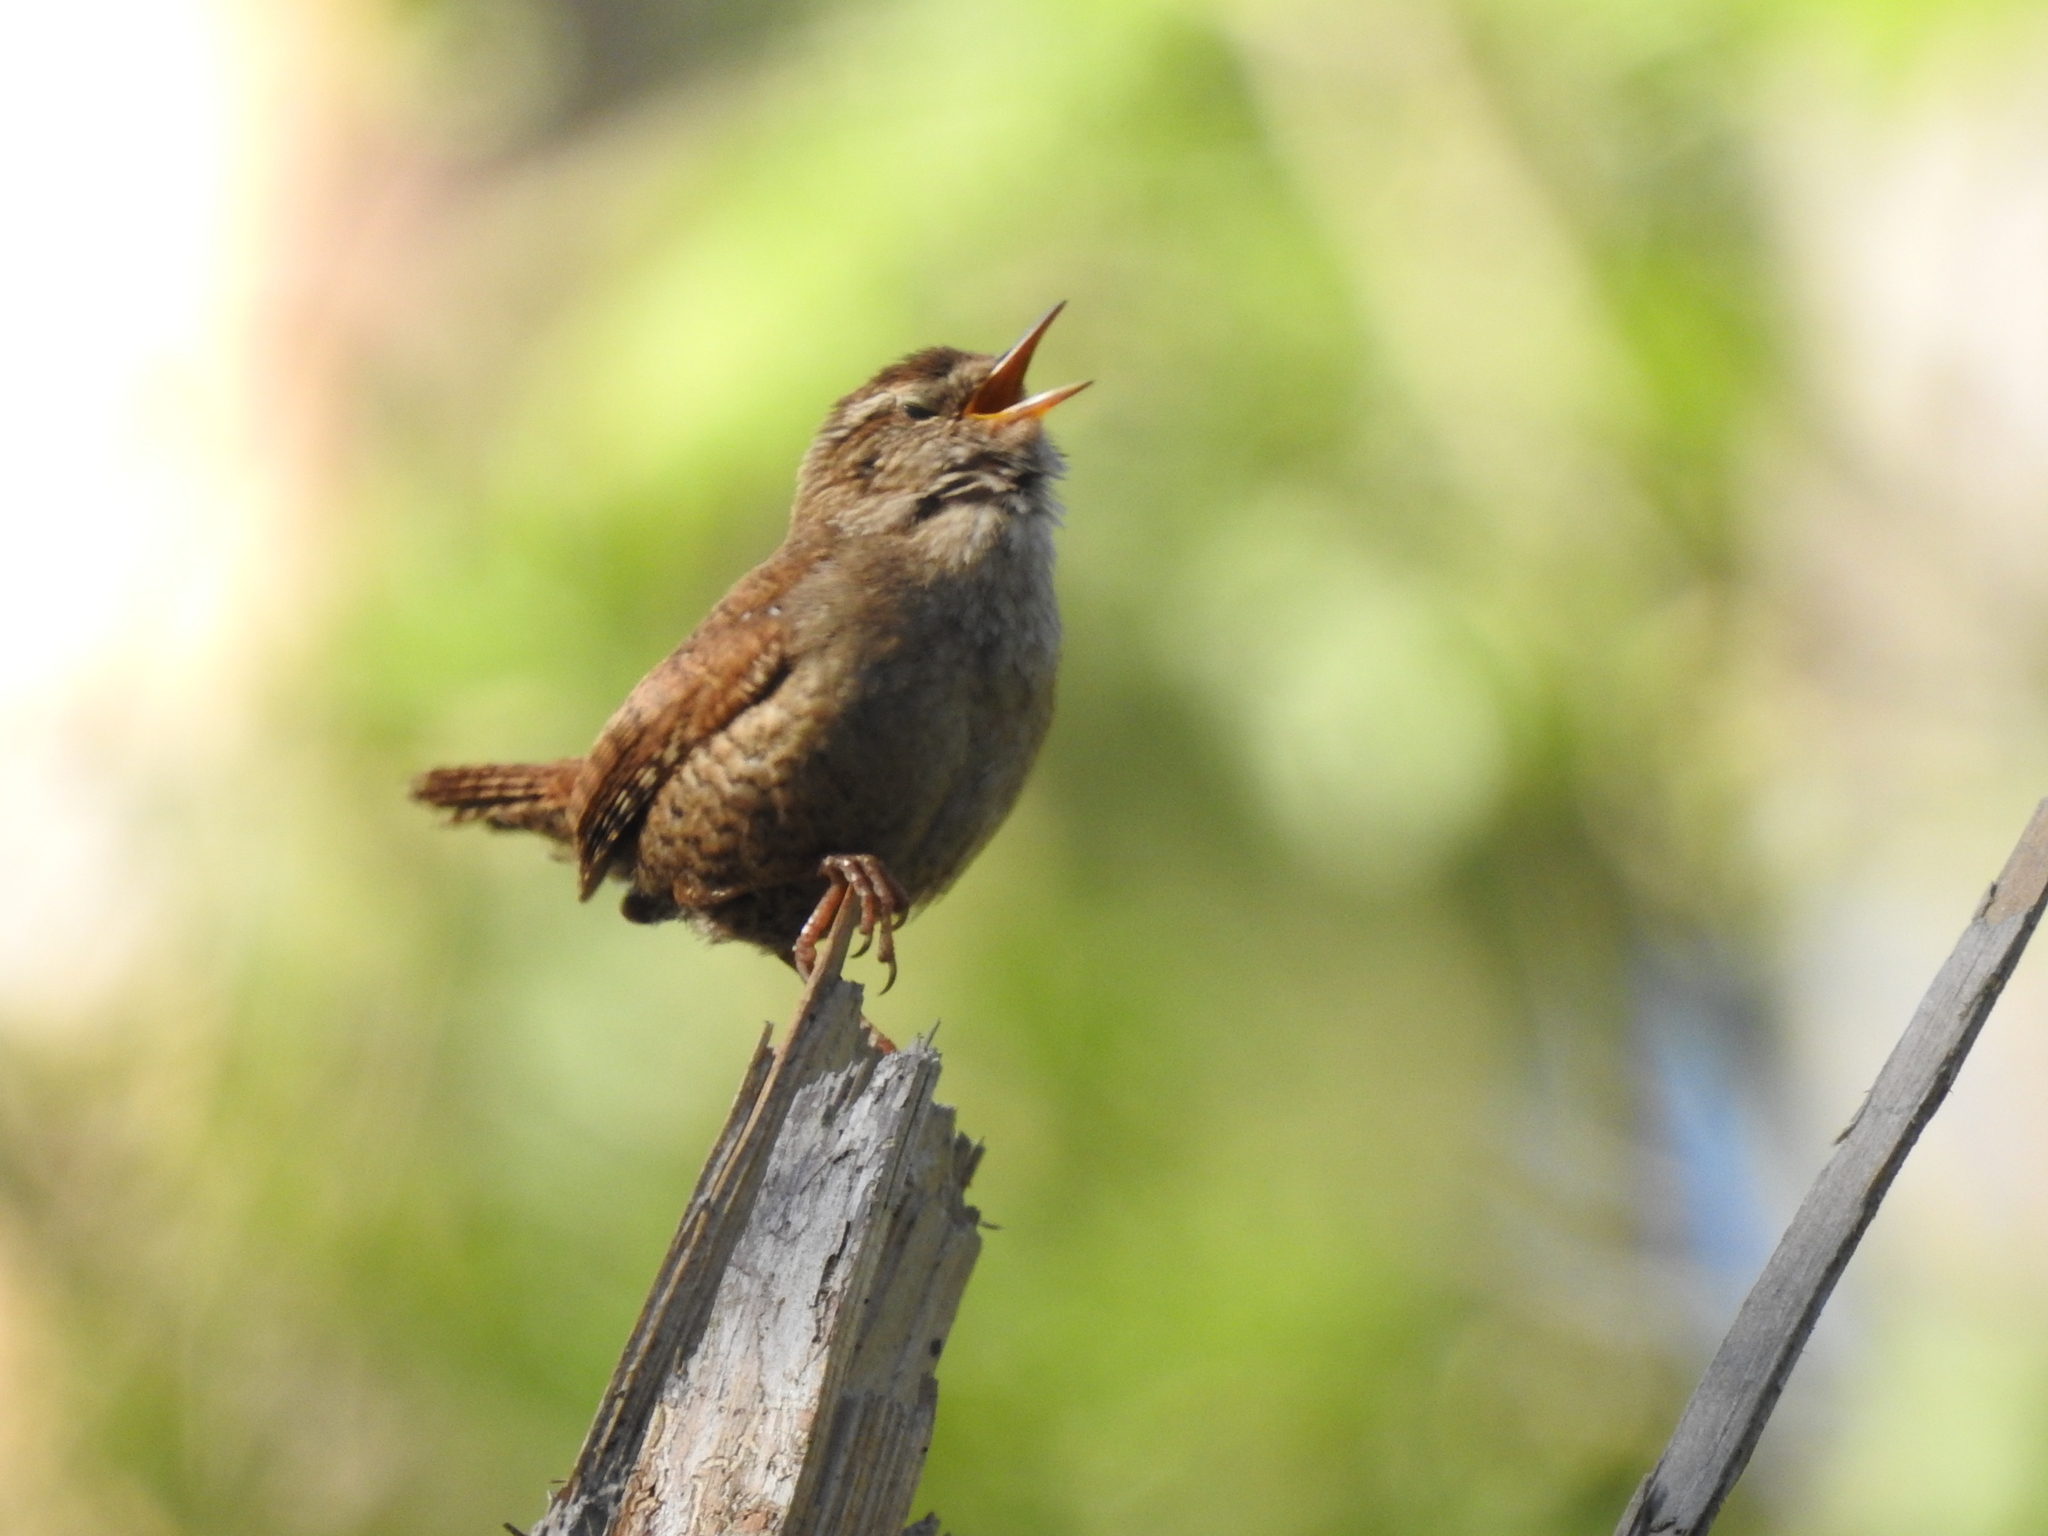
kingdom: Animalia
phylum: Chordata
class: Aves
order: Passeriformes
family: Troglodytidae
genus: Troglodytes
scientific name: Troglodytes troglodytes
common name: Eurasian wren
